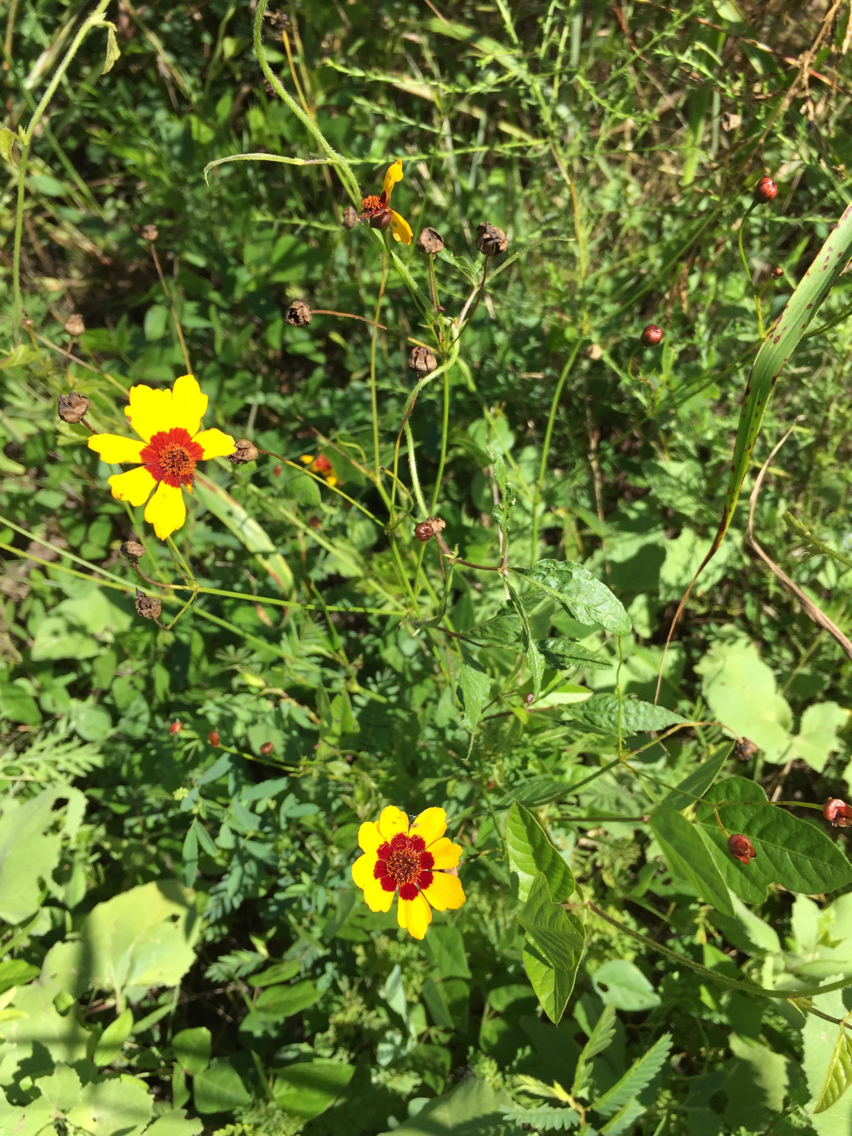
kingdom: Plantae
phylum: Tracheophyta
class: Magnoliopsida
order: Asterales
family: Asteraceae
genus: Coreopsis
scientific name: Coreopsis tinctoria
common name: Garden tickseed
